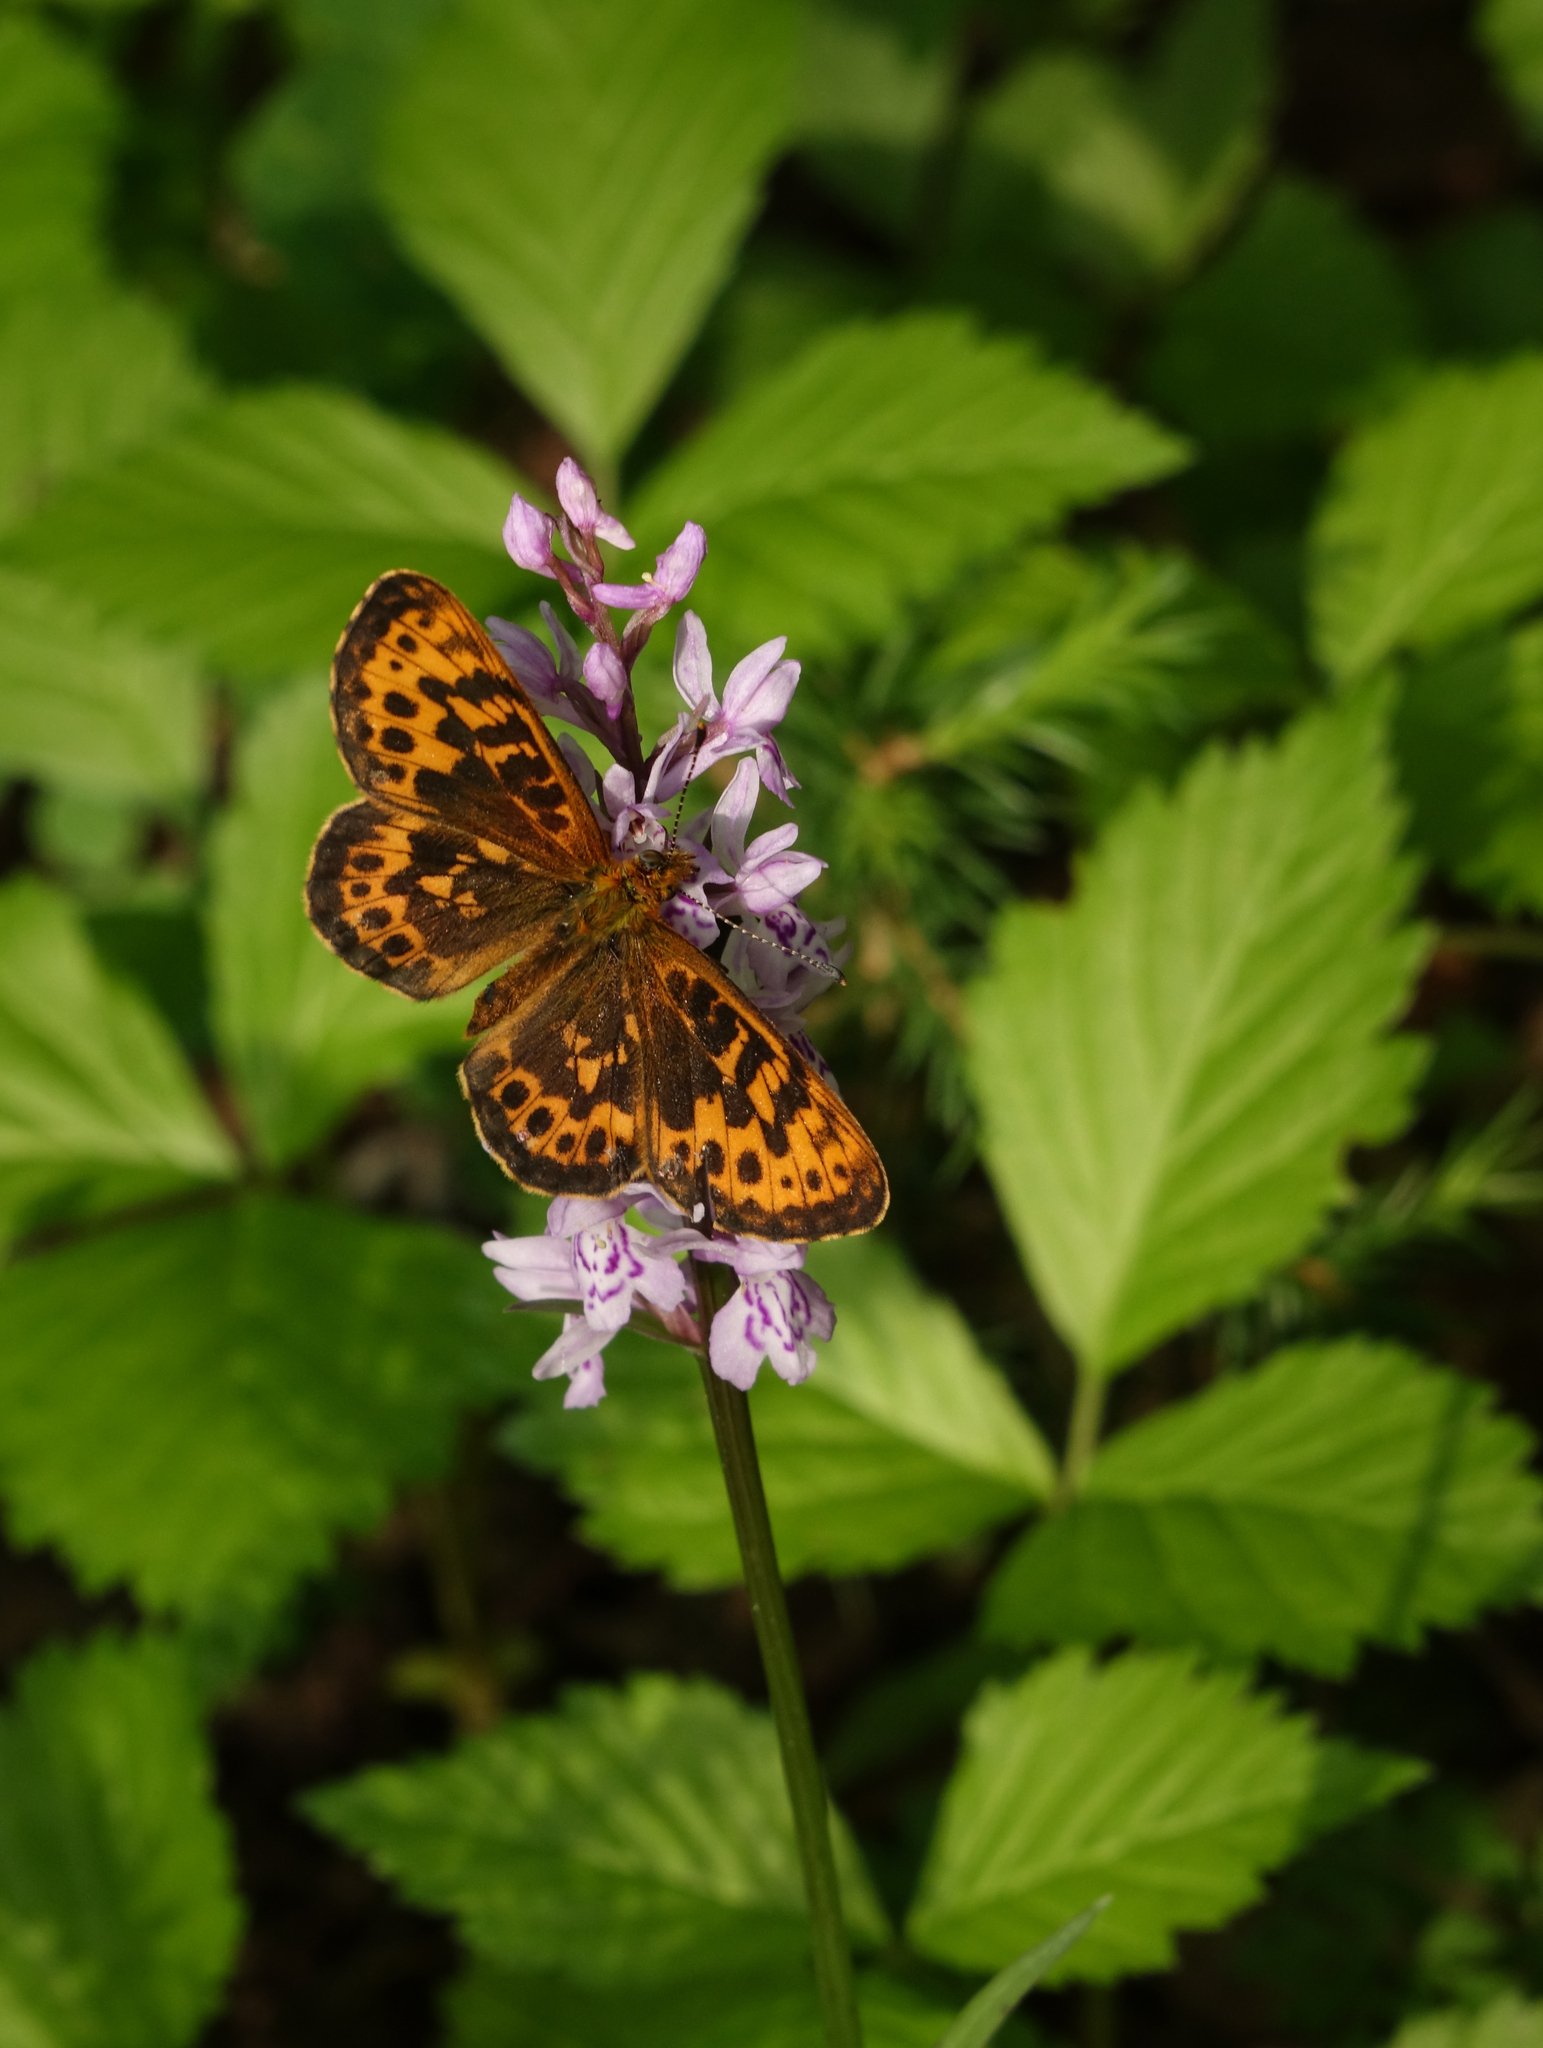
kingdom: Animalia
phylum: Arthropoda
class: Insecta
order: Lepidoptera
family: Nymphalidae
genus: Boloria
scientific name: Boloria thore
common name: Thor's fritillary
